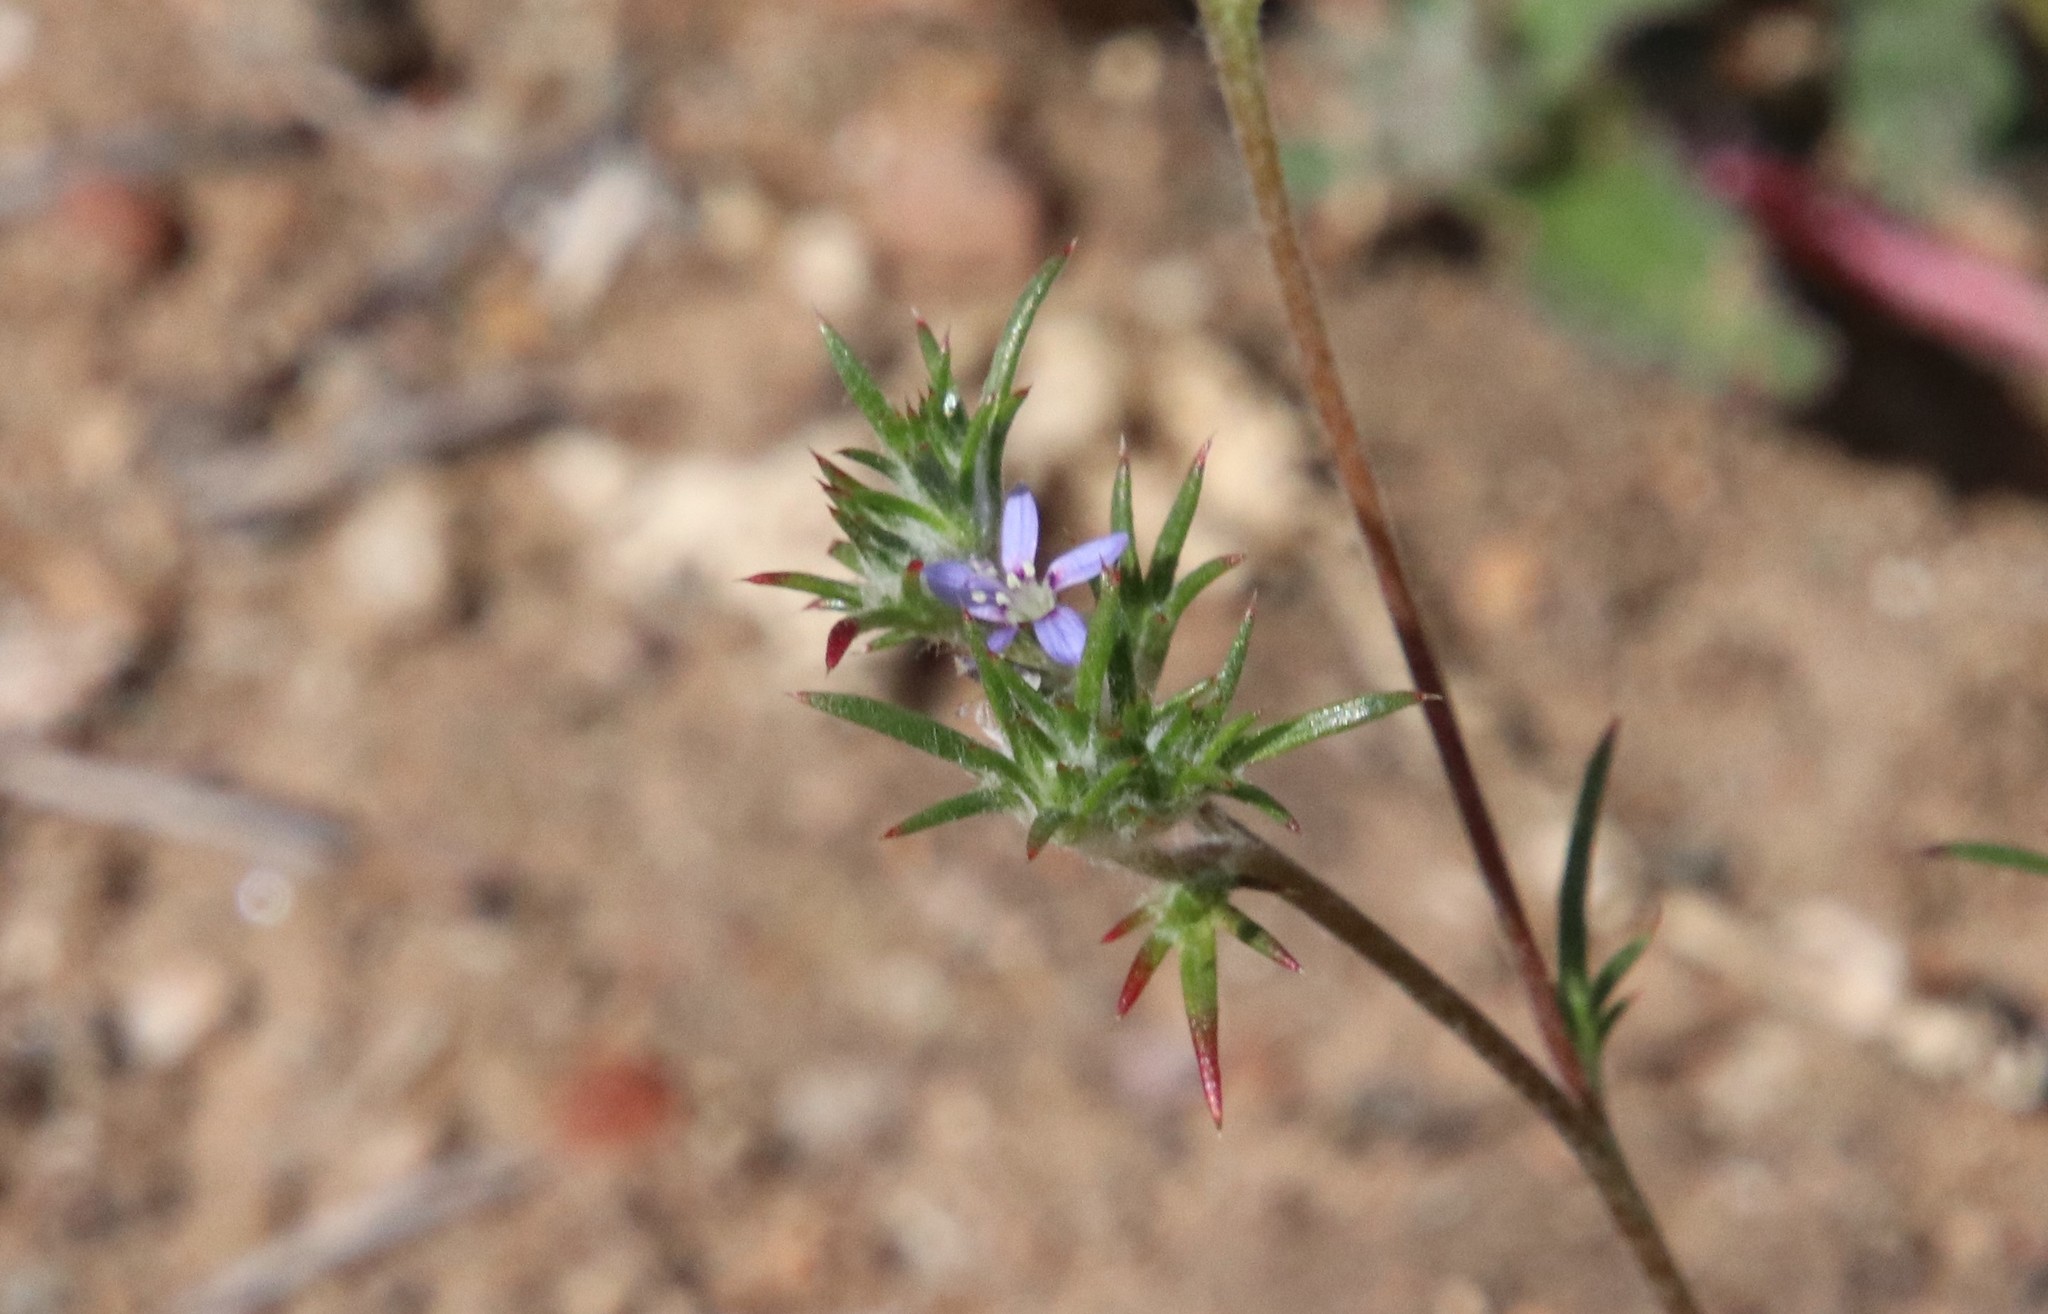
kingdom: Plantae
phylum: Tracheophyta
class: Magnoliopsida
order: Ericales
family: Polemoniaceae
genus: Eriastrum
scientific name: Eriastrum filifolium
